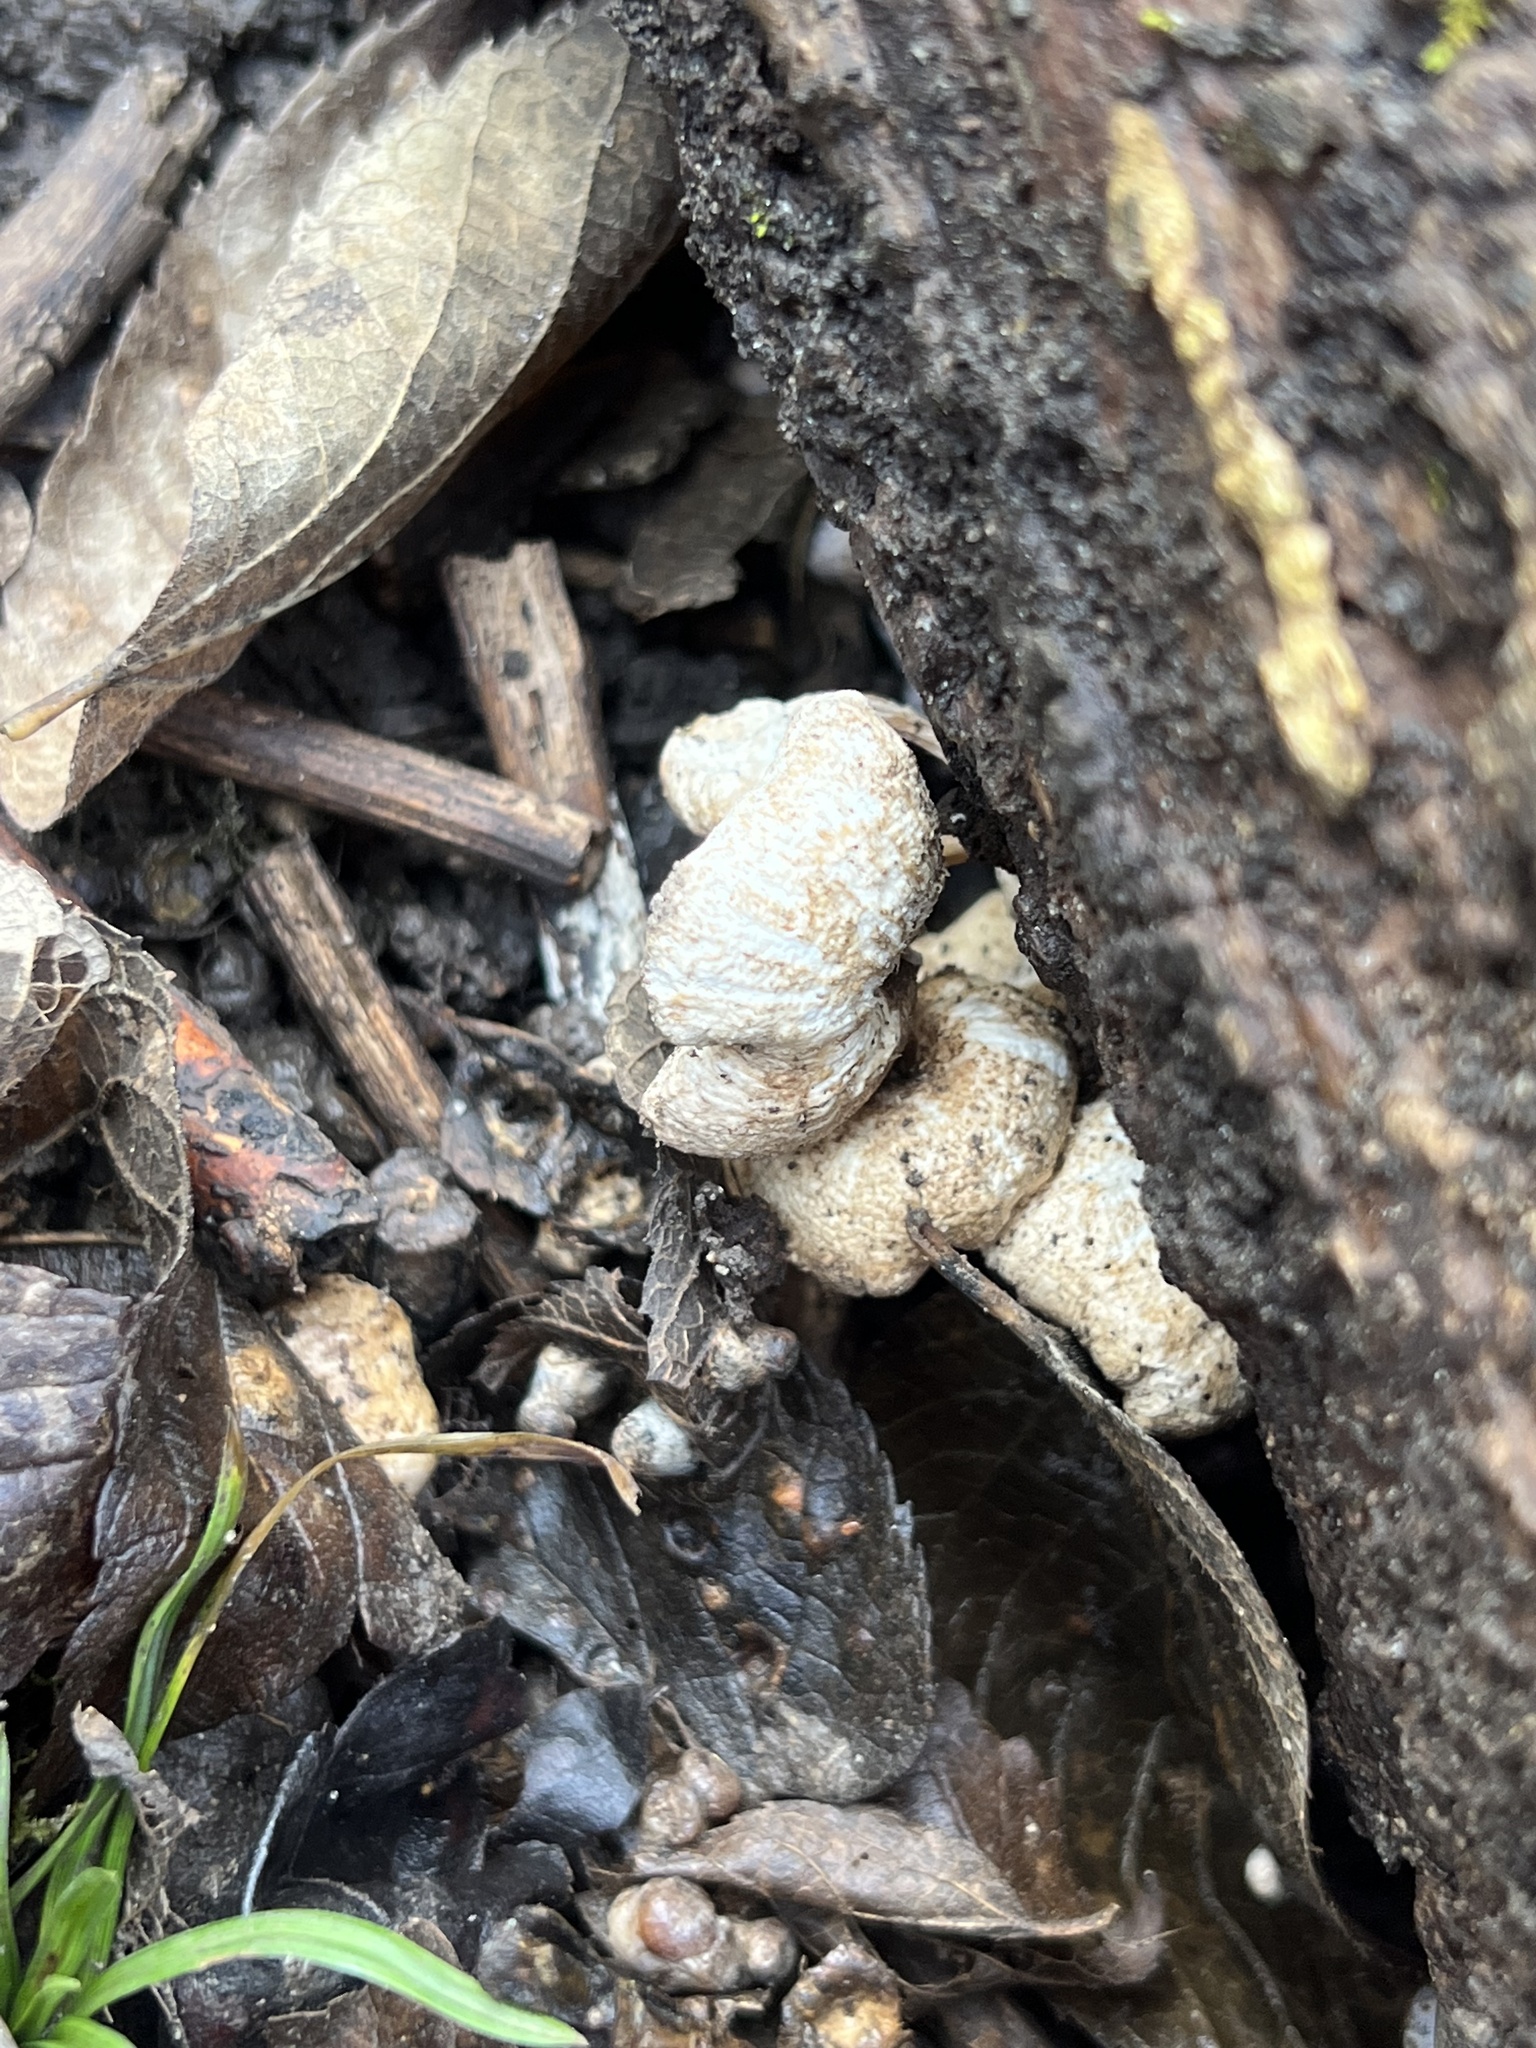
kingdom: Fungi
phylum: Basidiomycota
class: Agaricomycetes
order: Polyporales
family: Polyporaceae
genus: Lentinus
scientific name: Lentinus tigrinus
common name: Tiger sawgill
